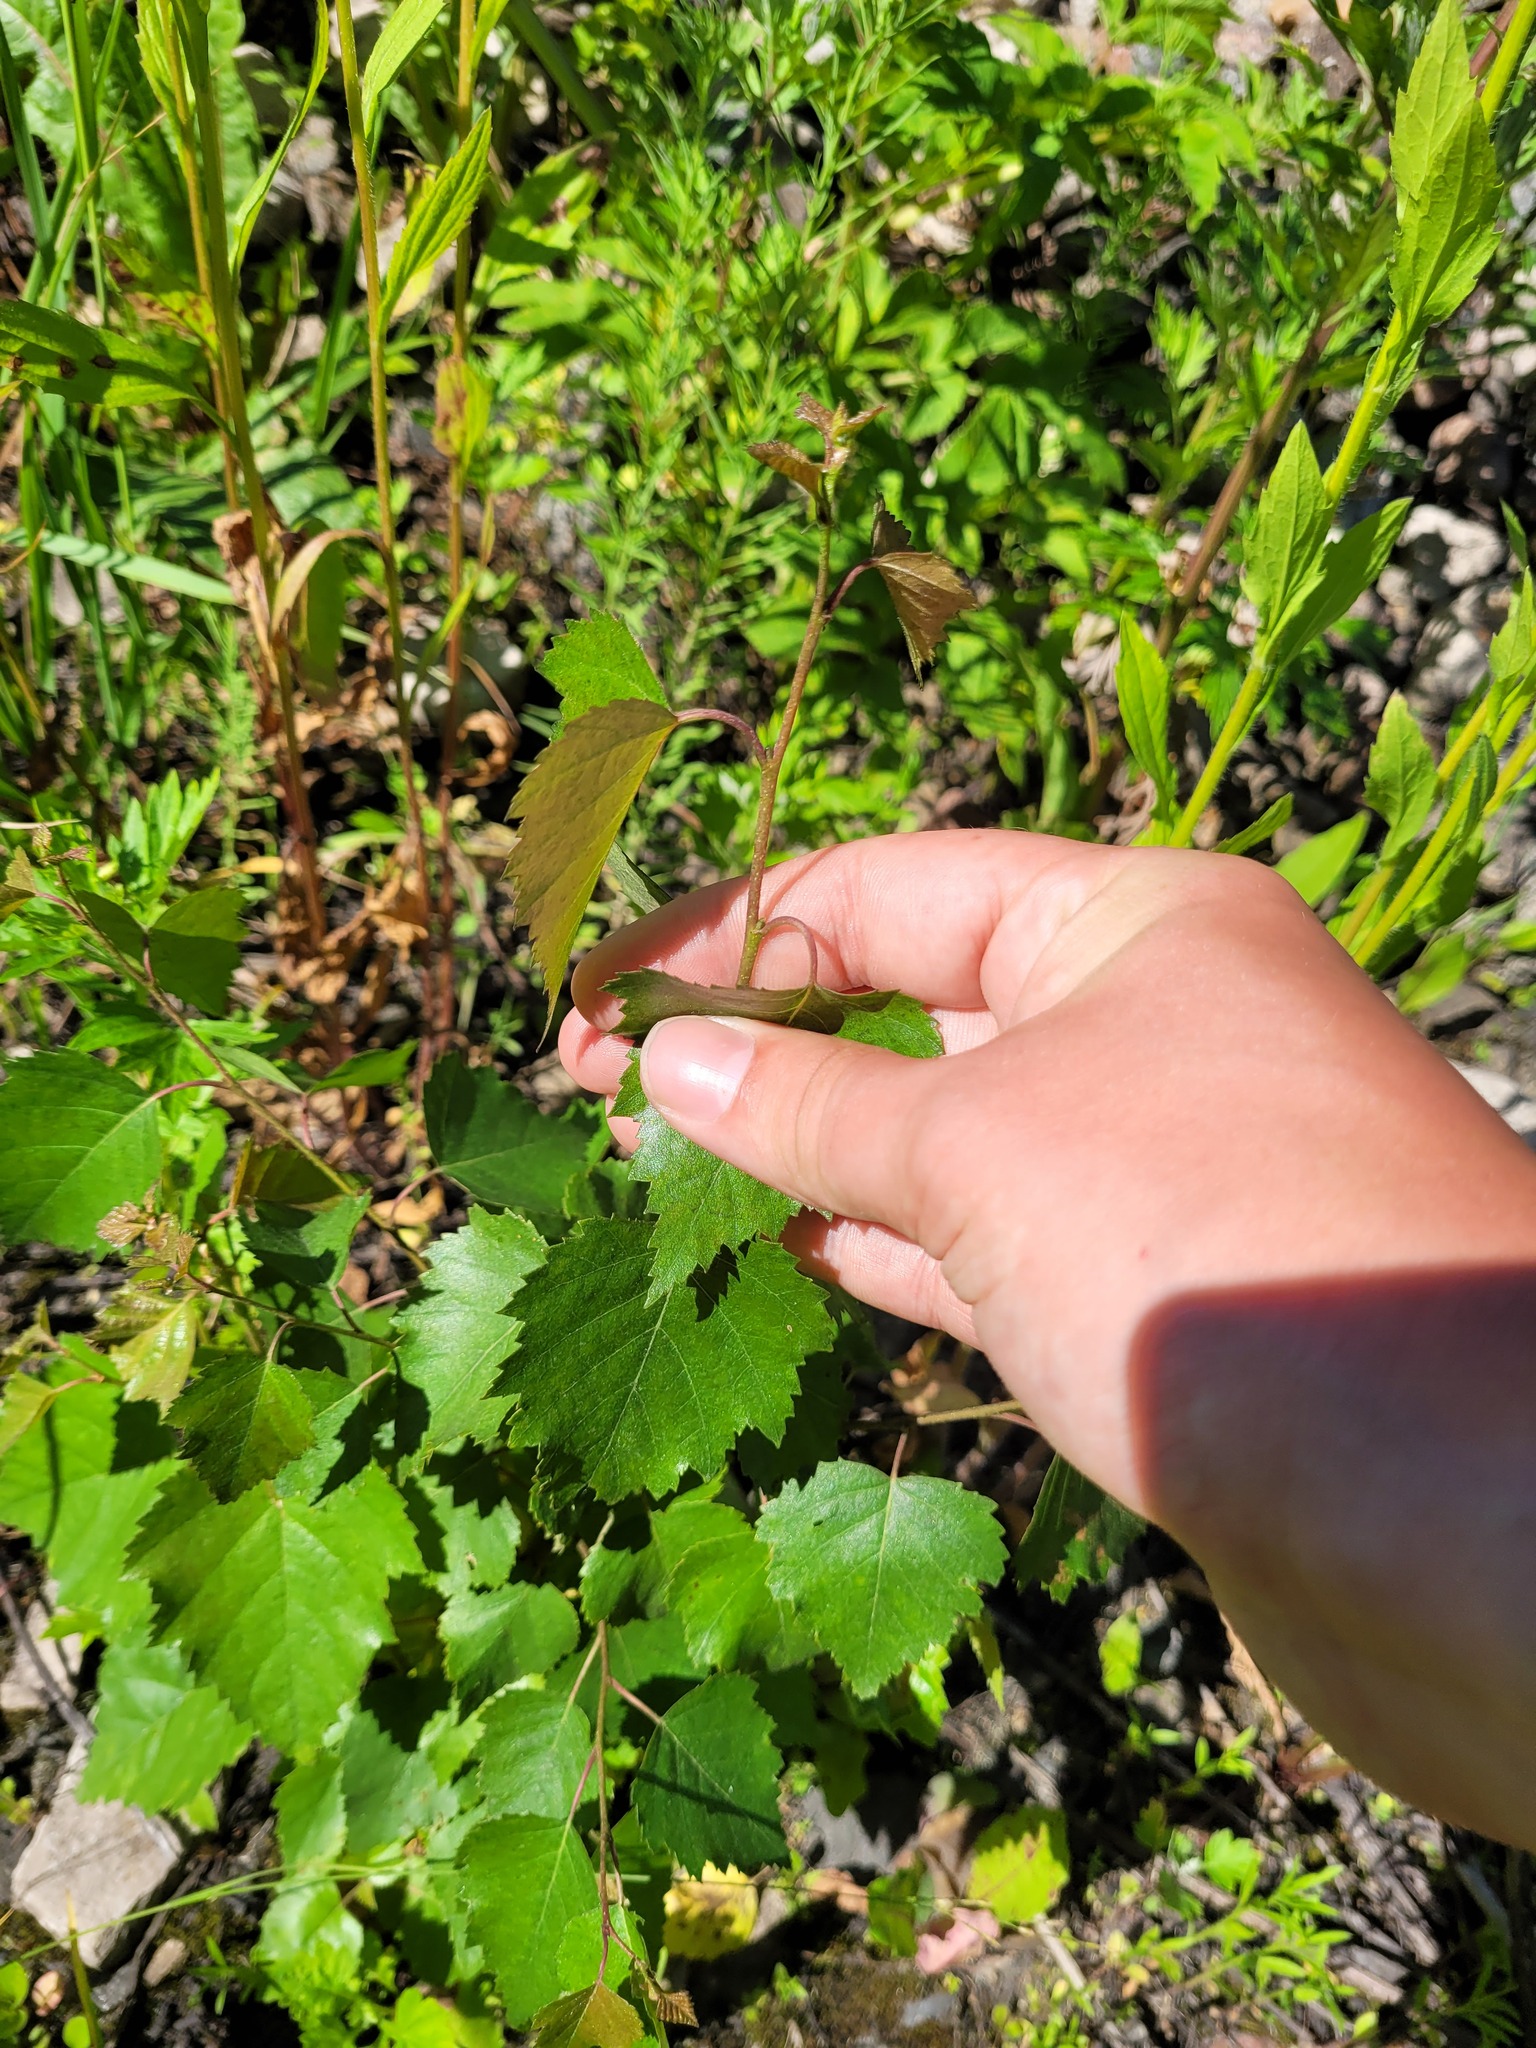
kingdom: Plantae
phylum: Tracheophyta
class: Magnoliopsida
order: Fagales
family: Betulaceae
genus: Betula
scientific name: Betula pendula
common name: Silver birch
